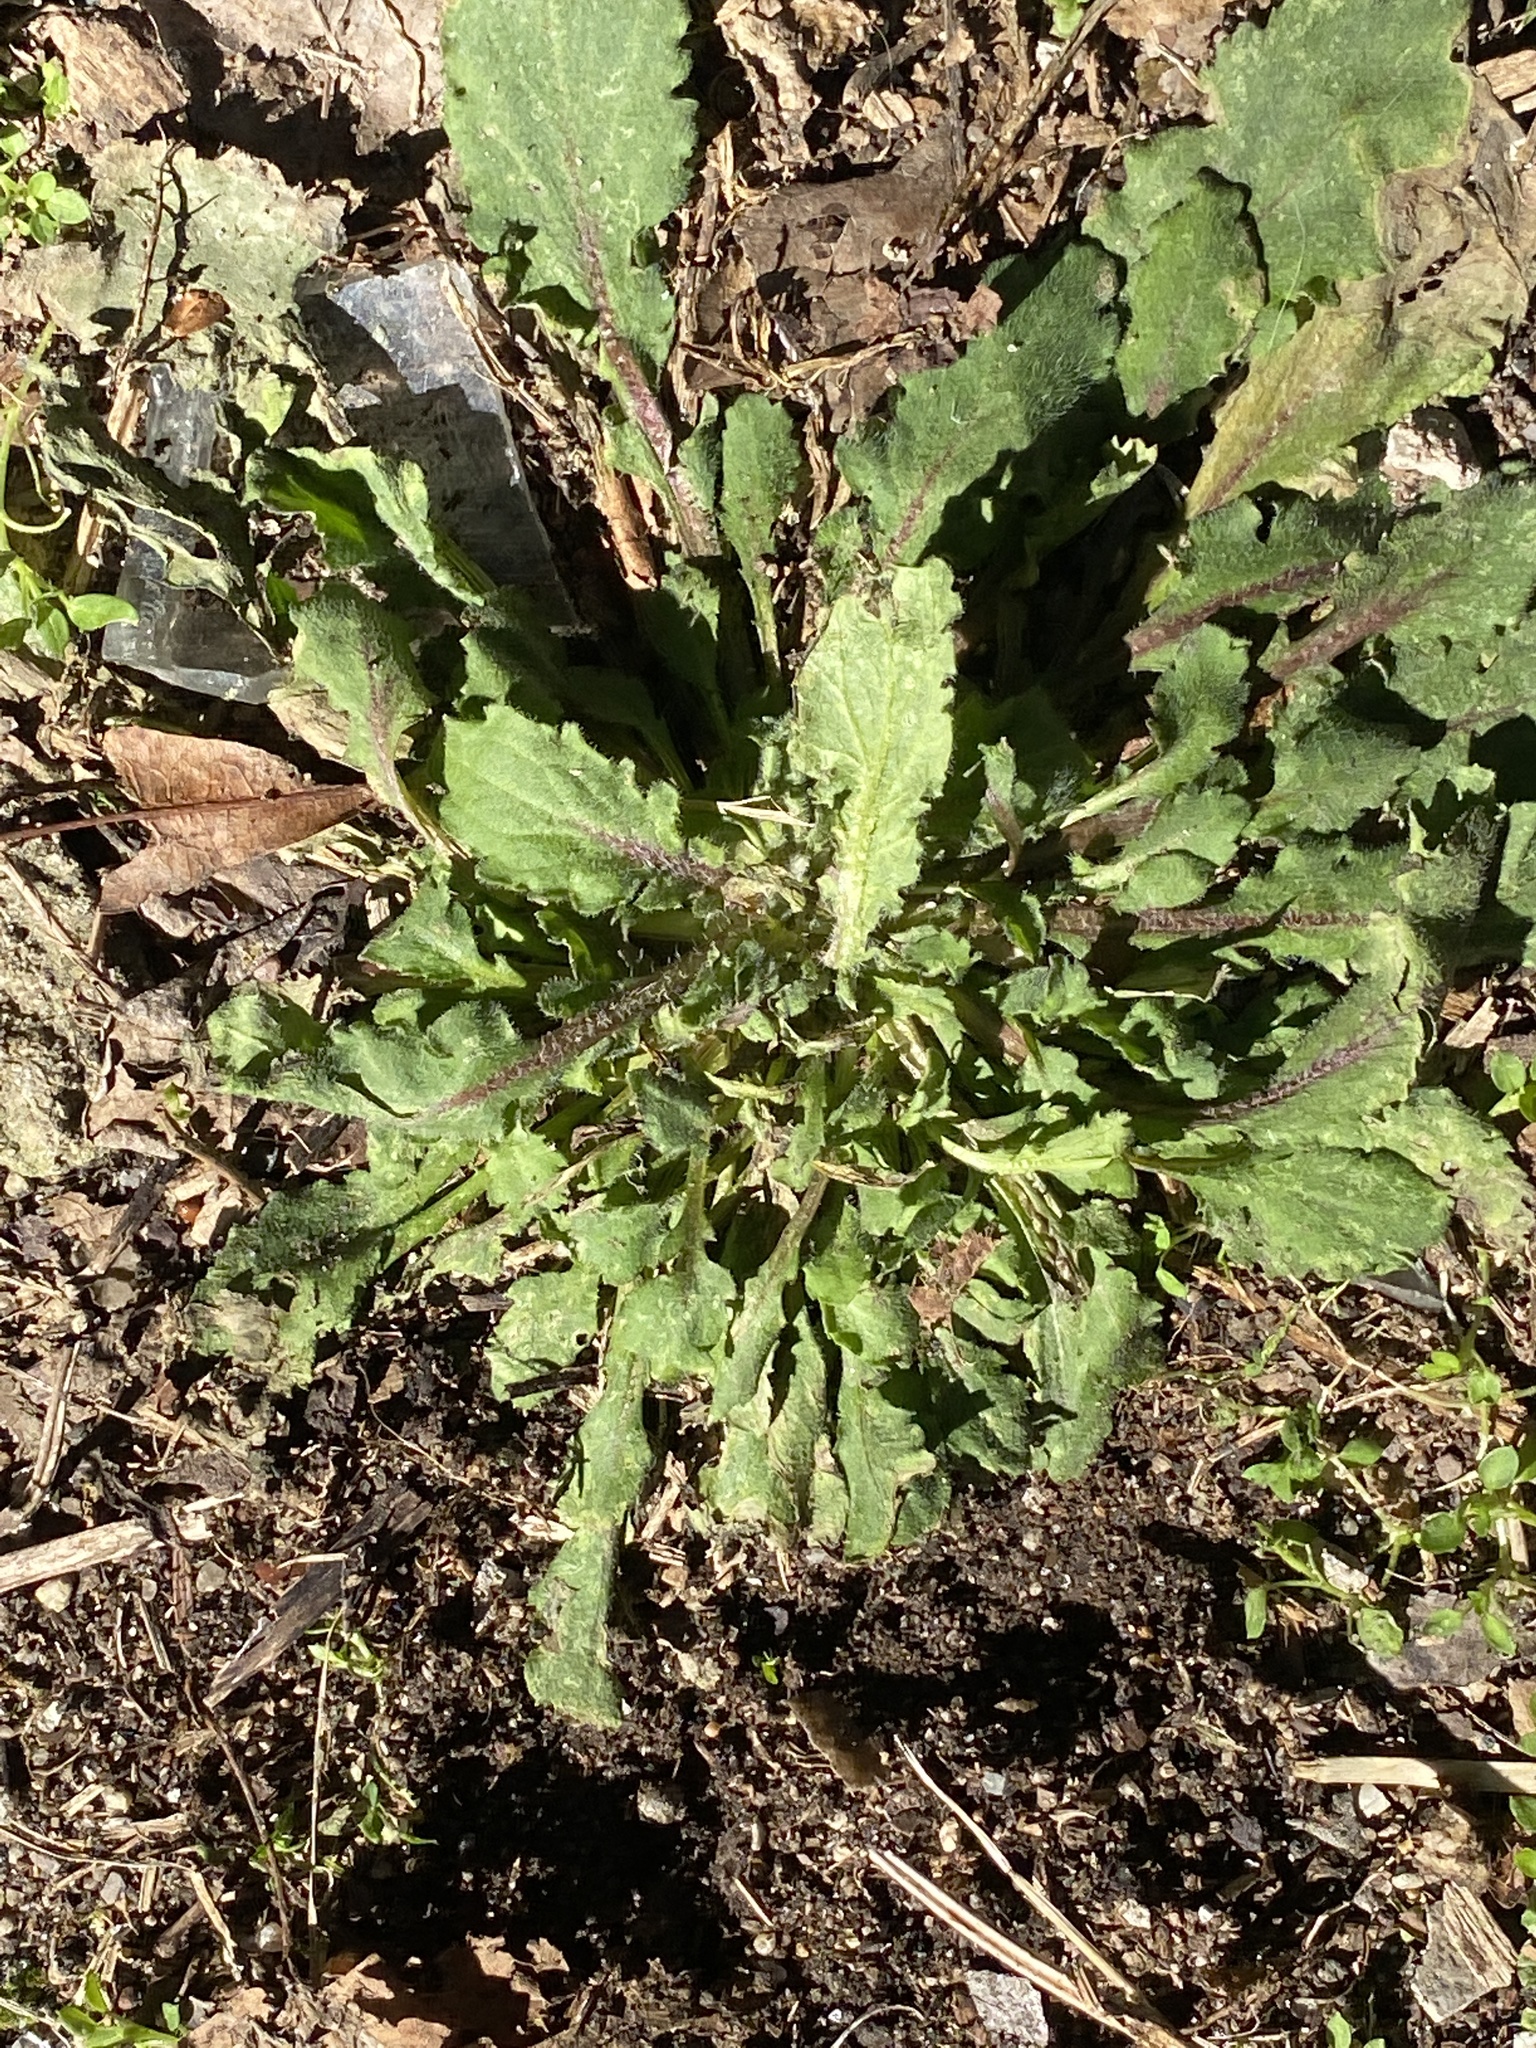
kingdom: Plantae
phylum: Tracheophyta
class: Magnoliopsida
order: Asterales
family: Asteraceae
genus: Erigeron
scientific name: Erigeron canadensis
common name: Canadian fleabane
